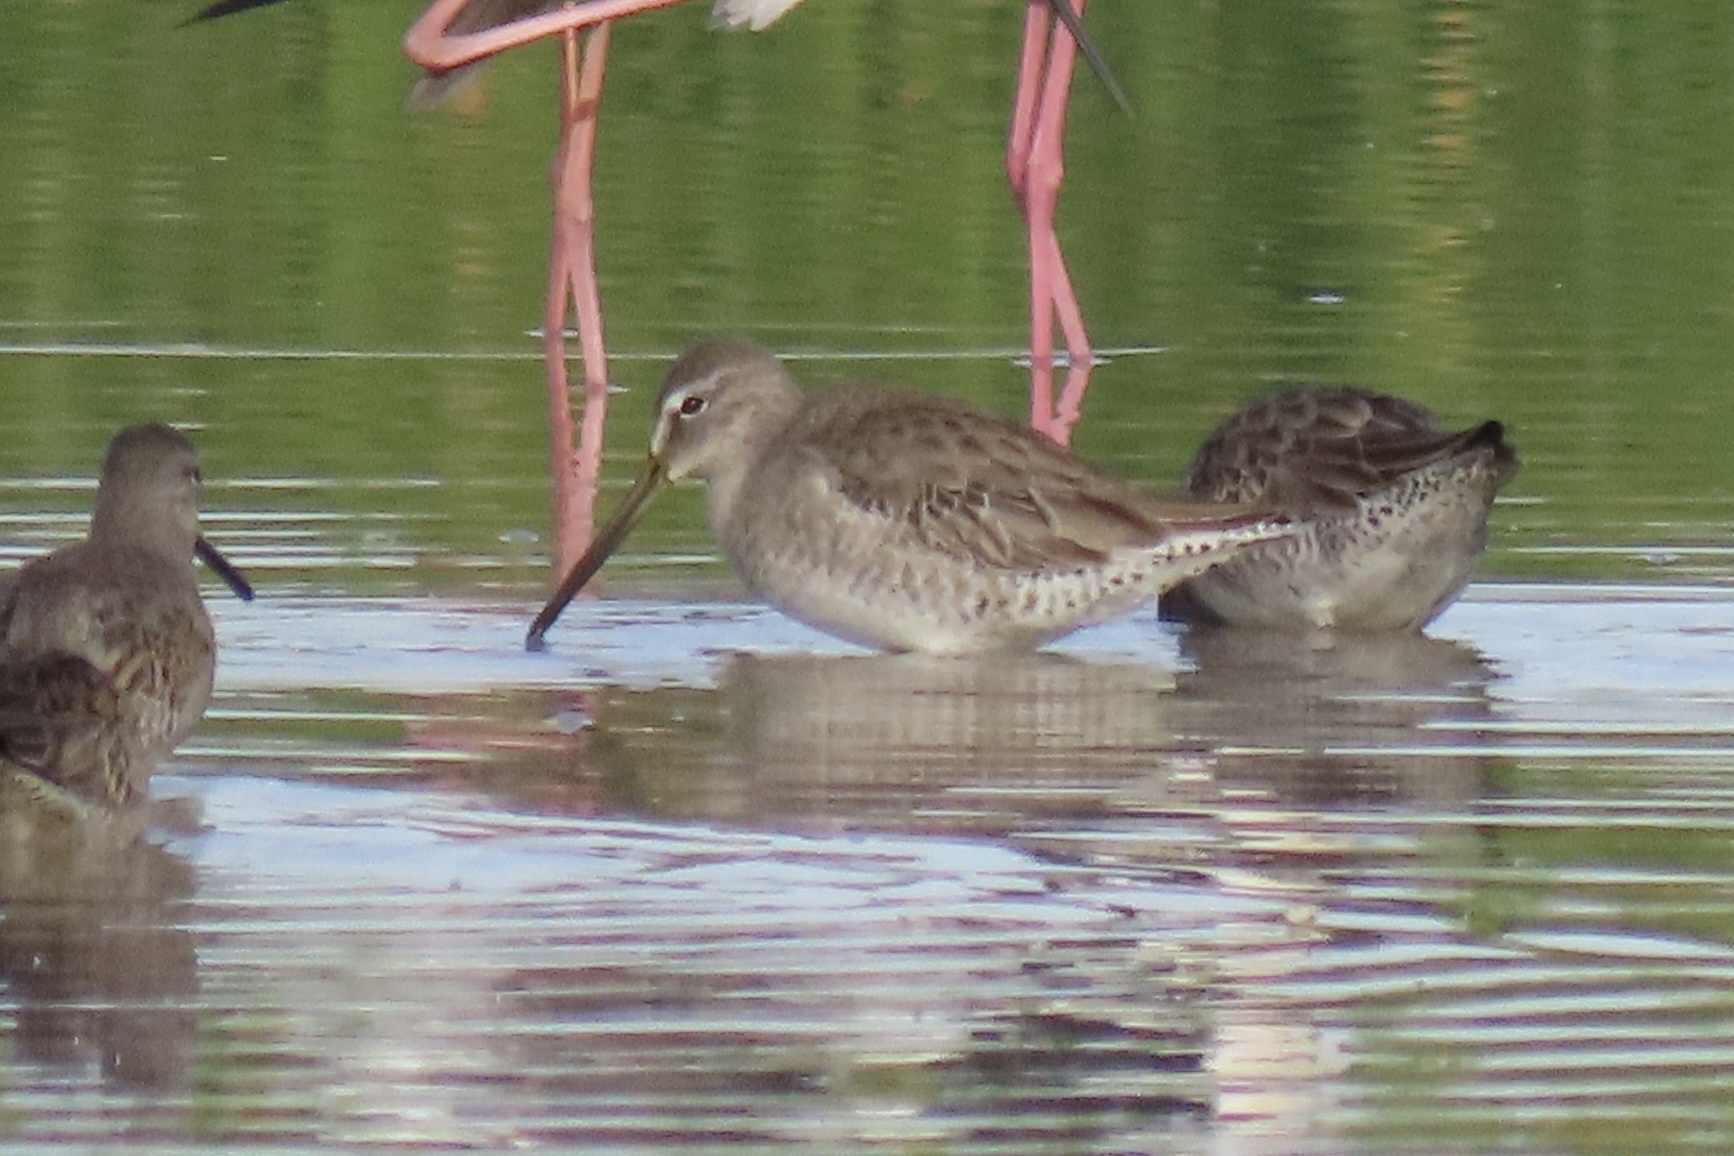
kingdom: Animalia
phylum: Chordata
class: Aves
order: Charadriiformes
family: Scolopacidae
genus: Limnodromus
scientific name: Limnodromus scolopaceus
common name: Long-billed dowitcher
